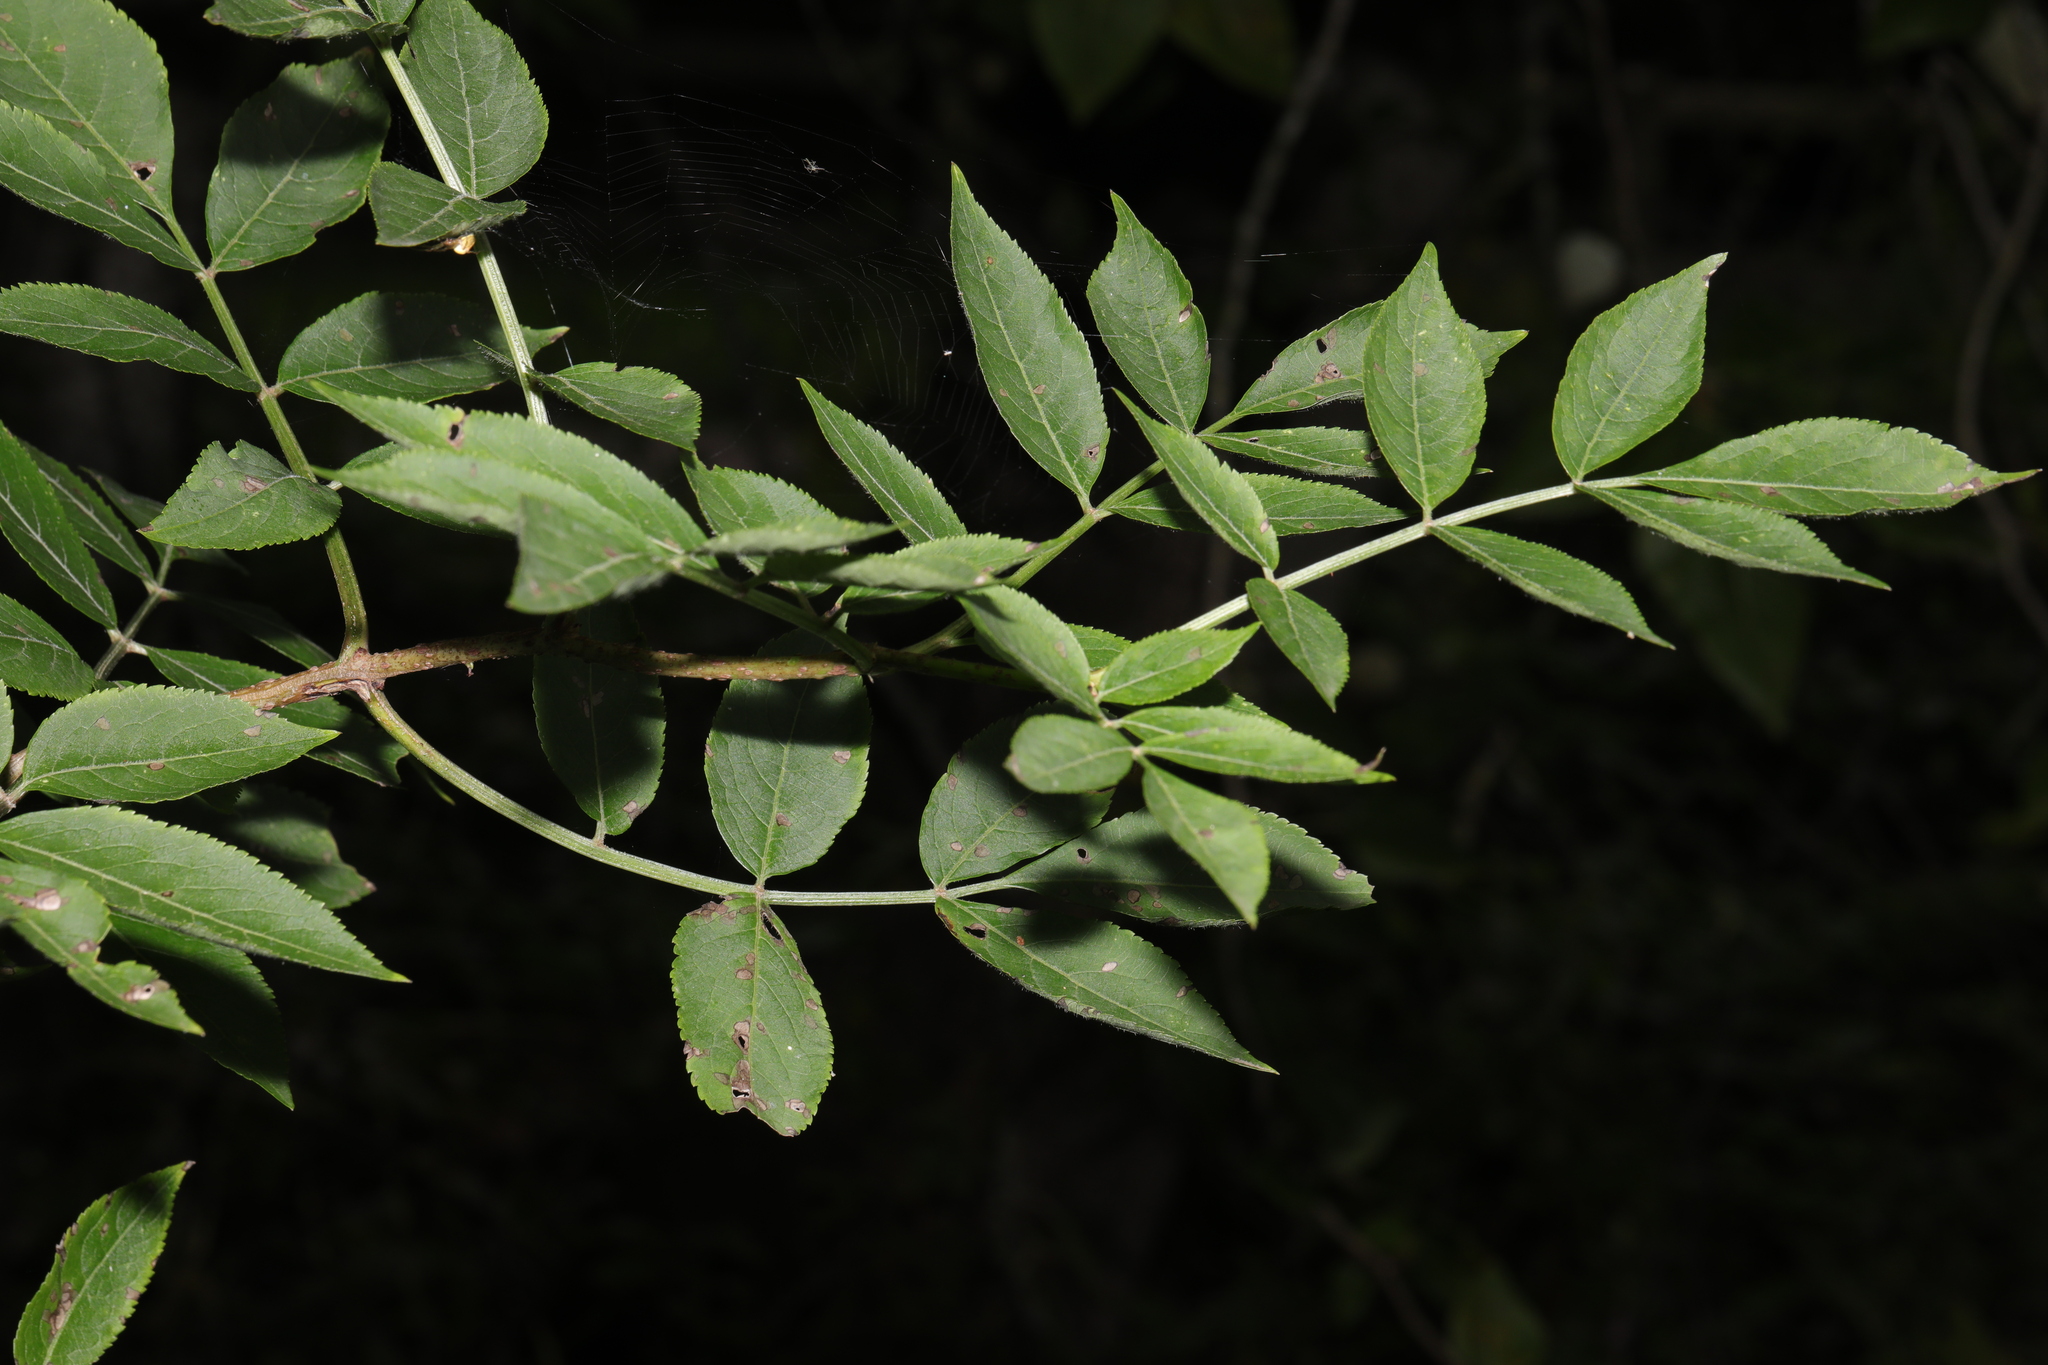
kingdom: Plantae
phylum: Tracheophyta
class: Magnoliopsida
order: Dipsacales
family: Viburnaceae
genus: Sambucus
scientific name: Sambucus nigra
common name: Elder
